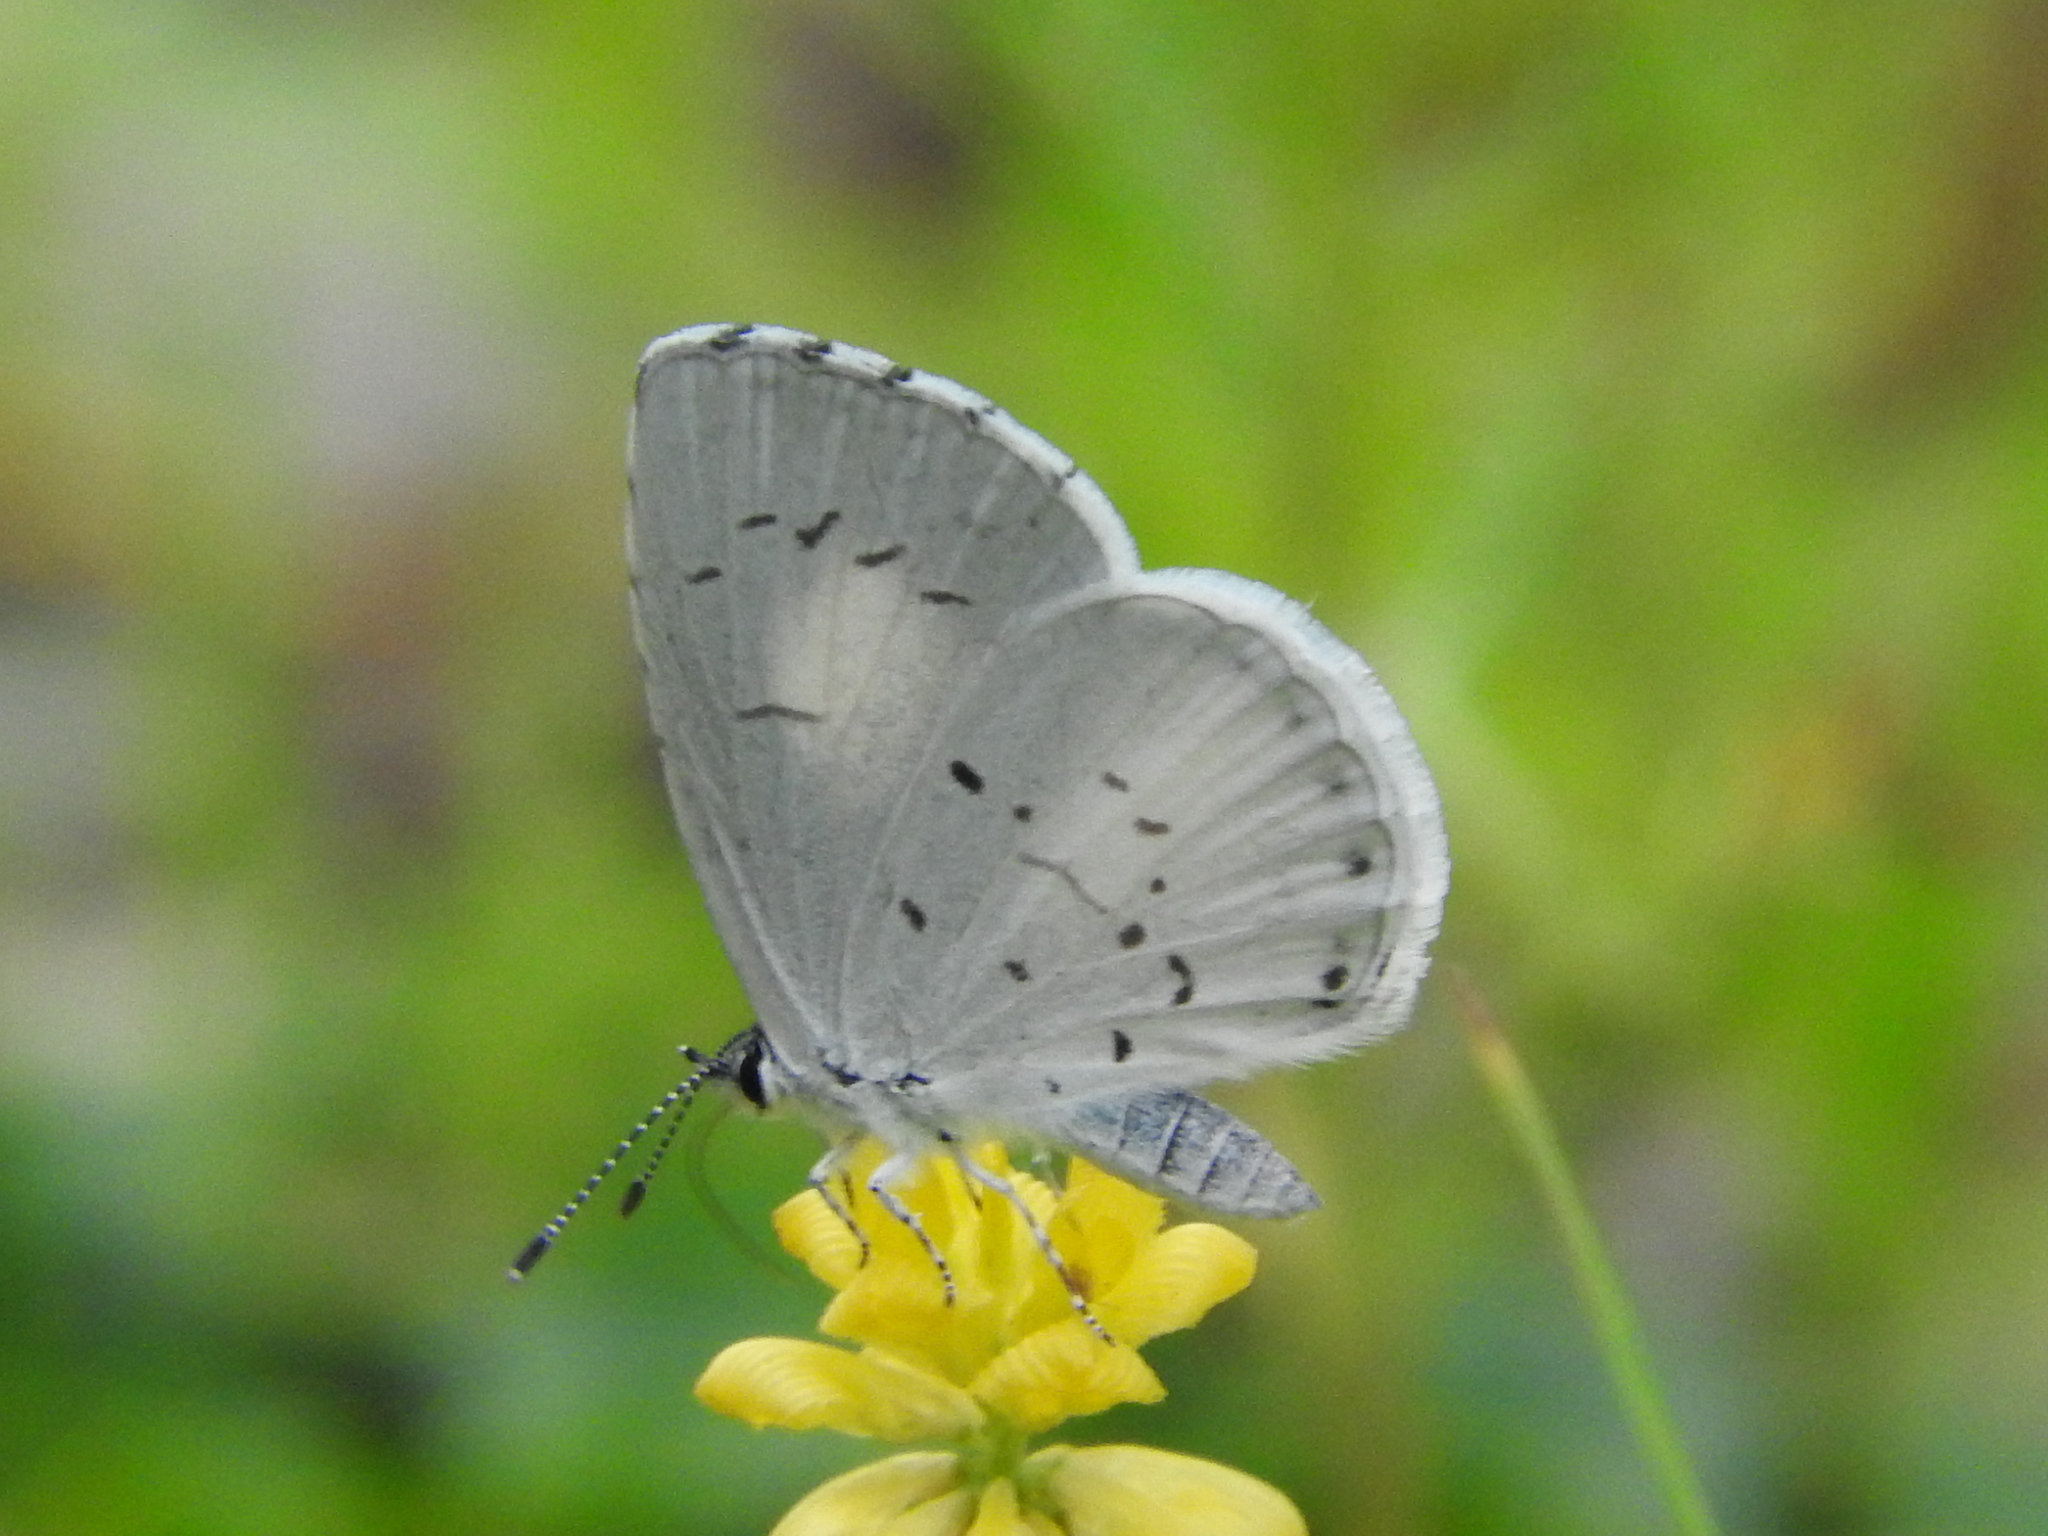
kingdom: Animalia
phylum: Arthropoda
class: Insecta
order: Lepidoptera
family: Lycaenidae
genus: Cyaniris
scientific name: Cyaniris neglecta
